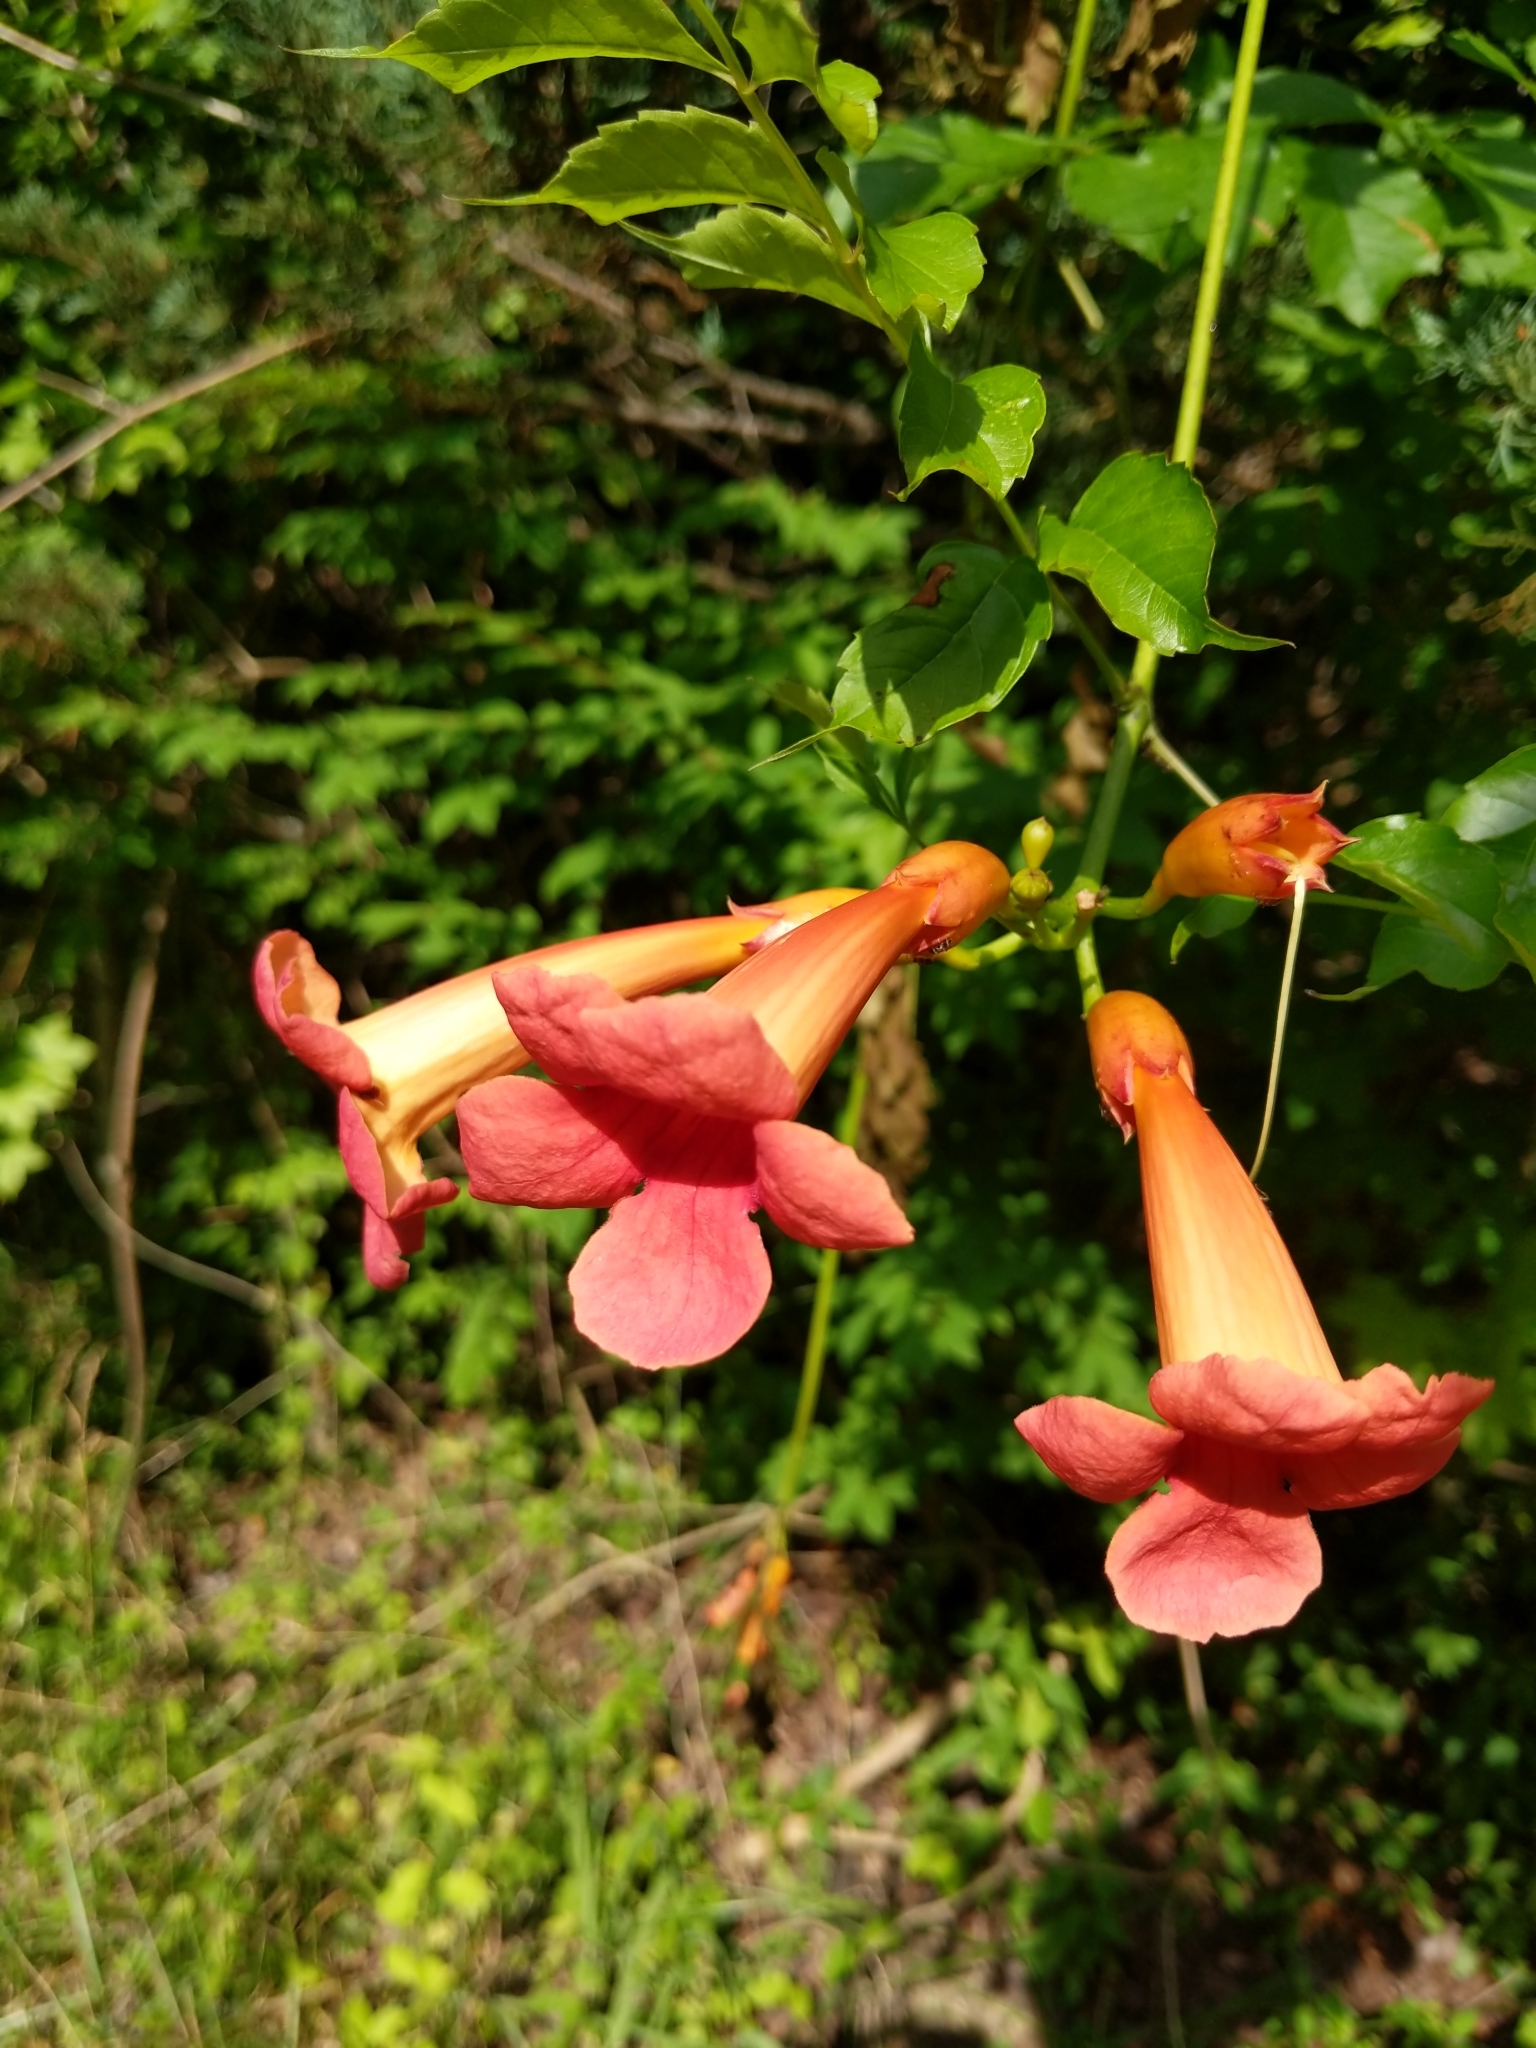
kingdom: Plantae
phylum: Tracheophyta
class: Magnoliopsida
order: Lamiales
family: Bignoniaceae
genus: Campsis
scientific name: Campsis radicans
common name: Trumpet-creeper
